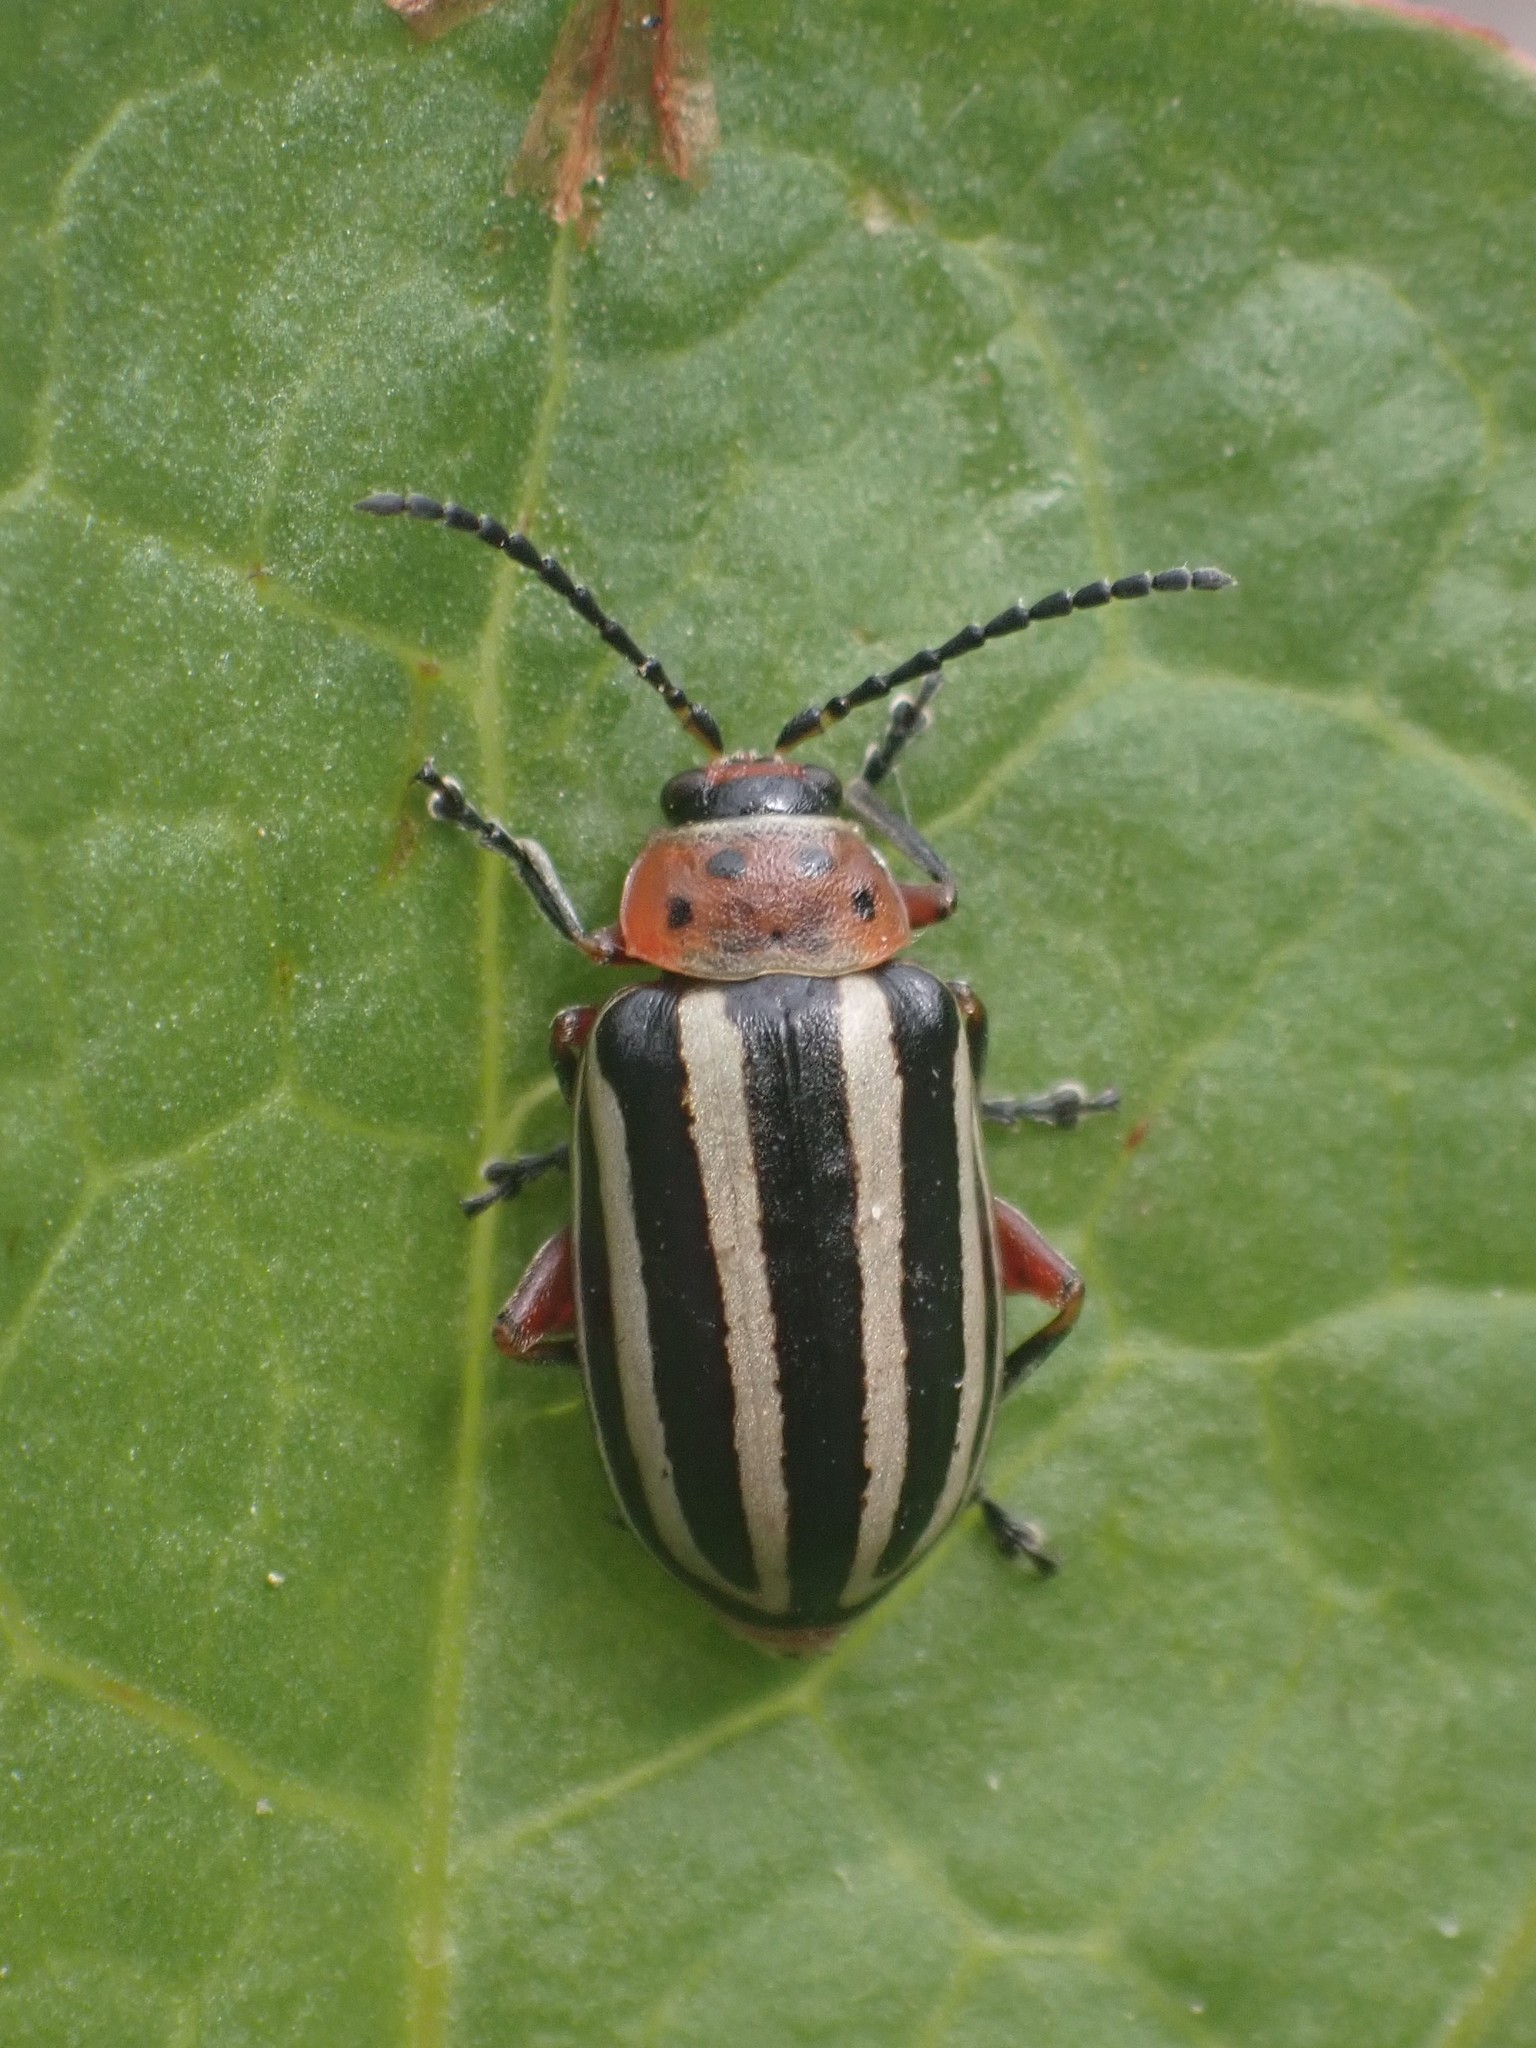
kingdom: Animalia
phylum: Arthropoda
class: Insecta
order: Coleoptera
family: Chrysomelidae
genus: Disonycha
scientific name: Disonycha latiovittata
